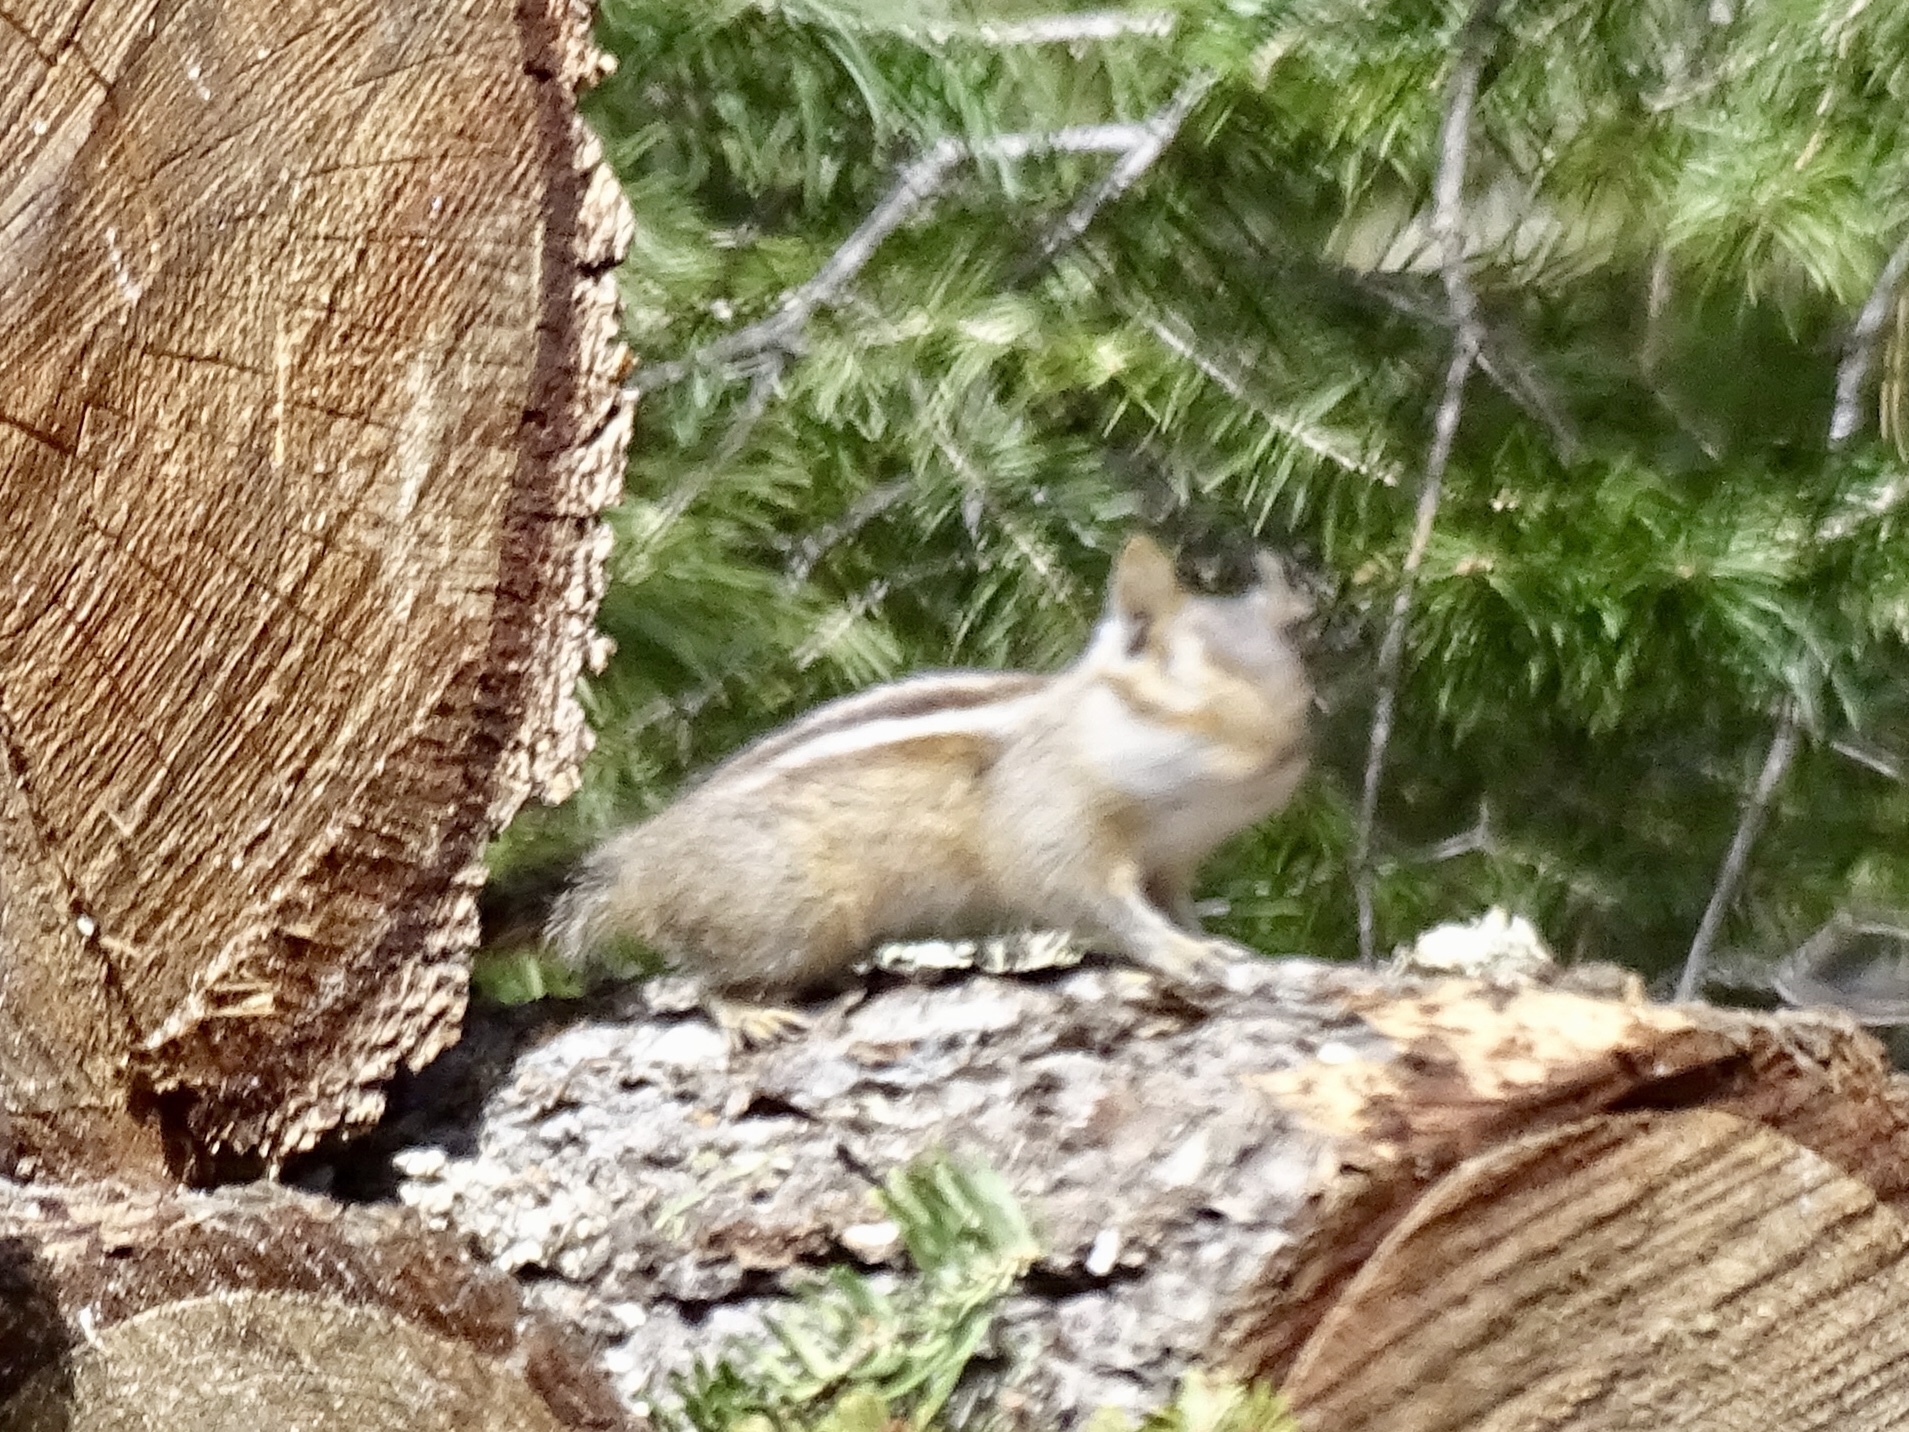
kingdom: Animalia
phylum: Chordata
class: Mammalia
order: Rodentia
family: Sciuridae
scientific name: Sciuridae
